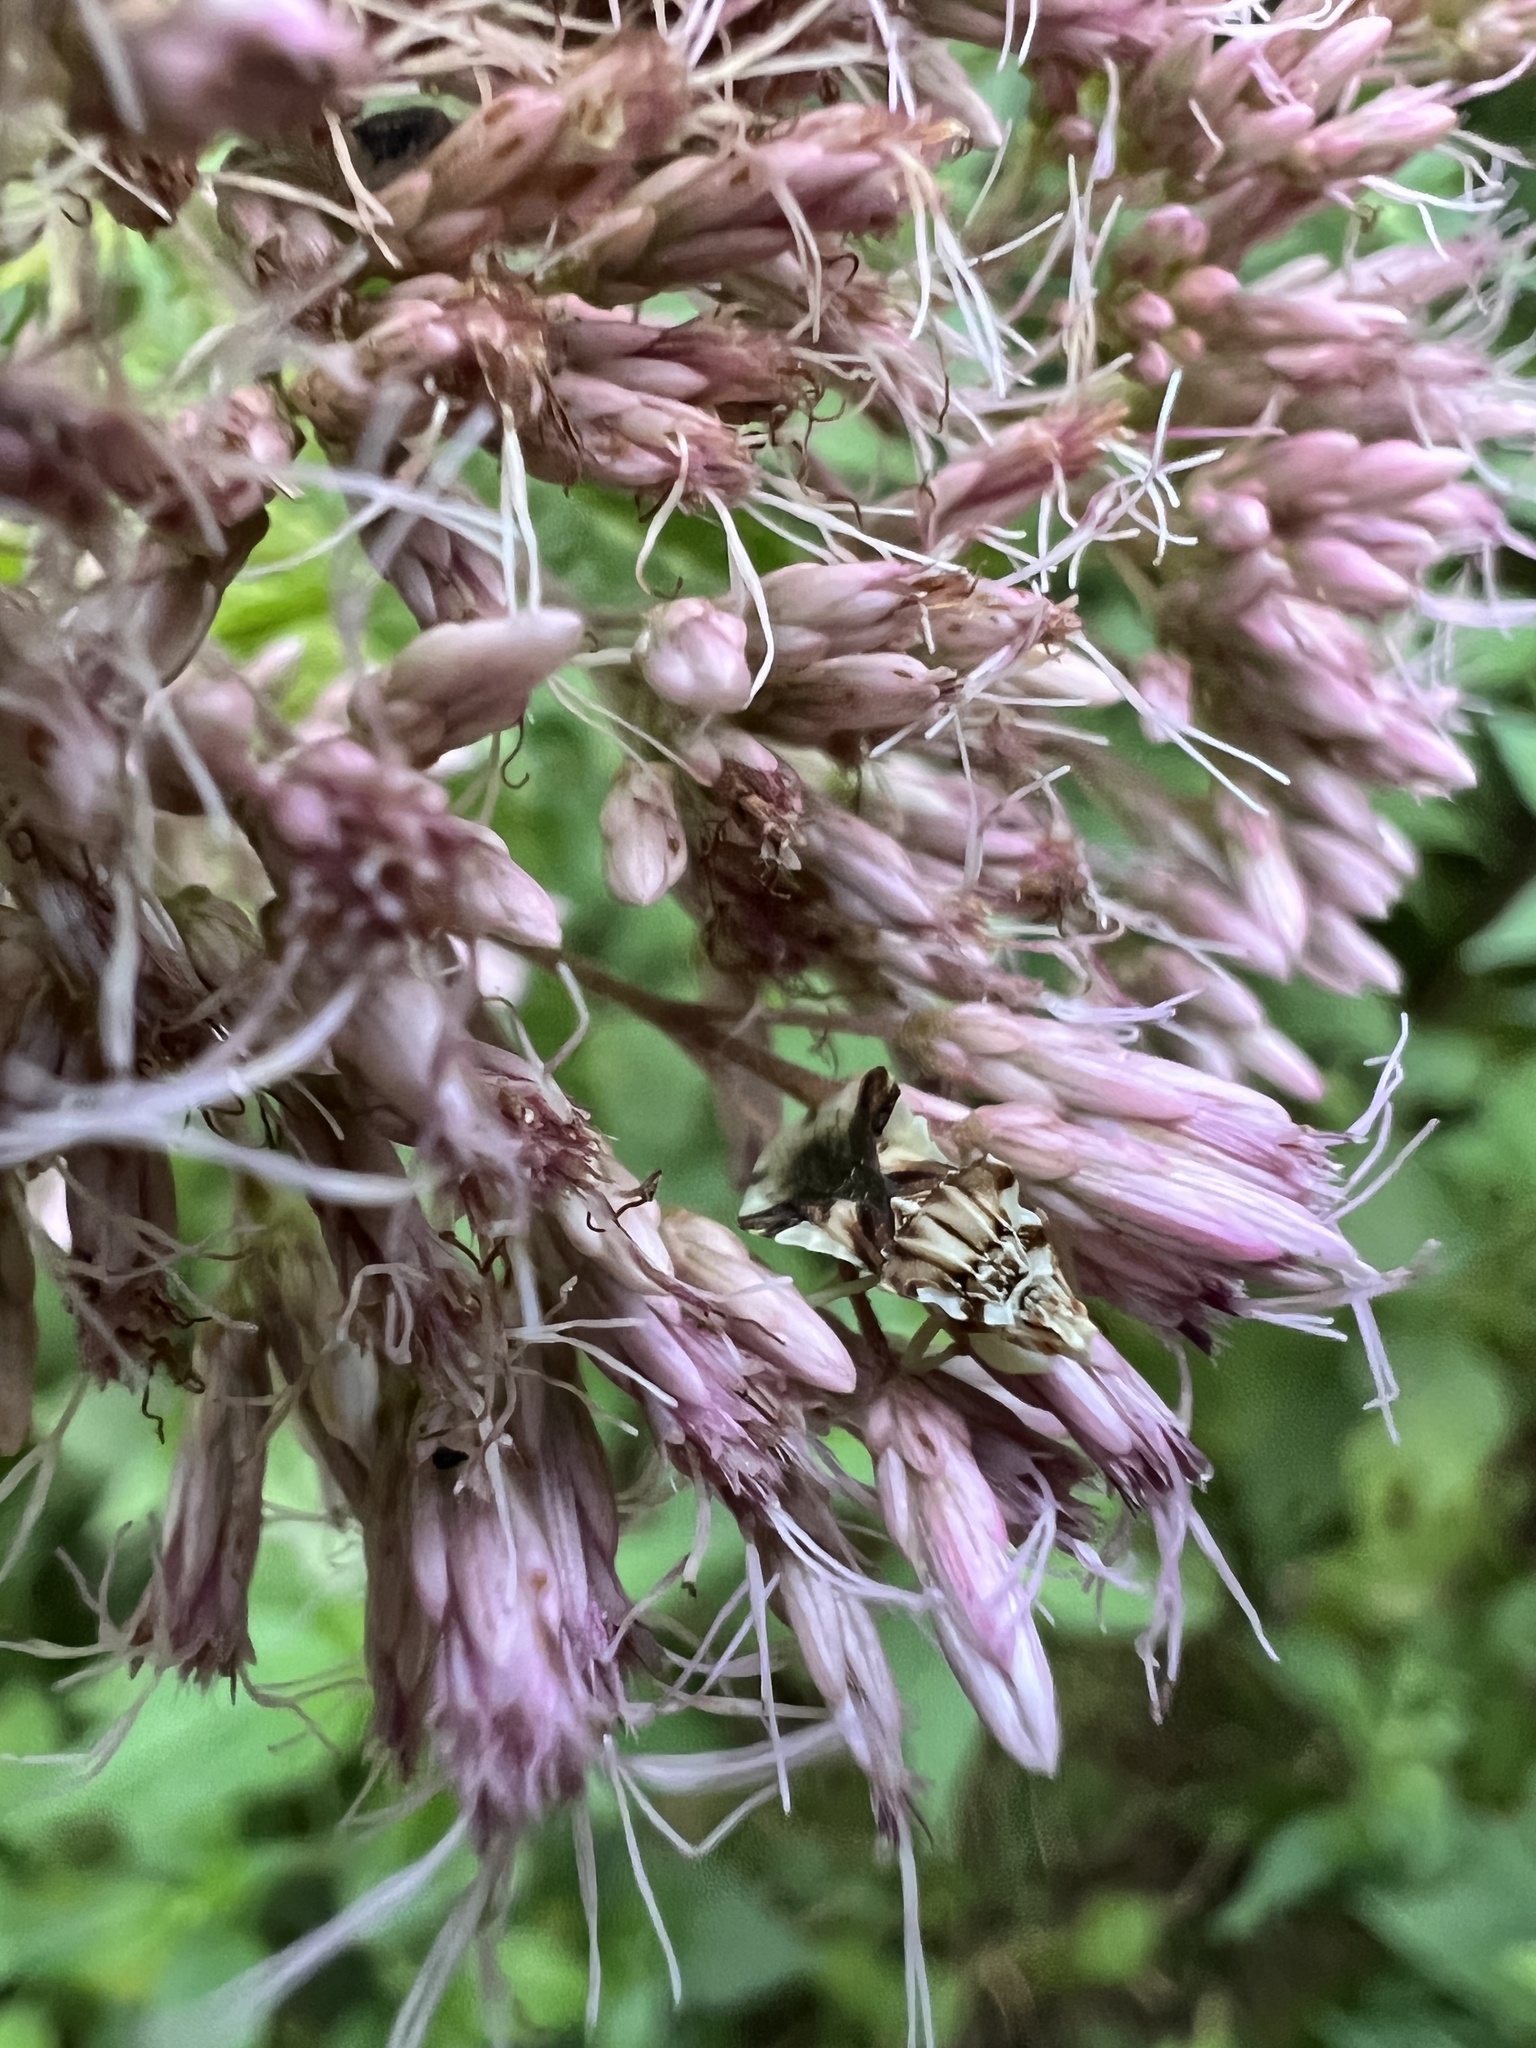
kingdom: Animalia
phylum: Arthropoda
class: Insecta
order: Hemiptera
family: Reduviidae
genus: Phymata
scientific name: Phymata fasciata
